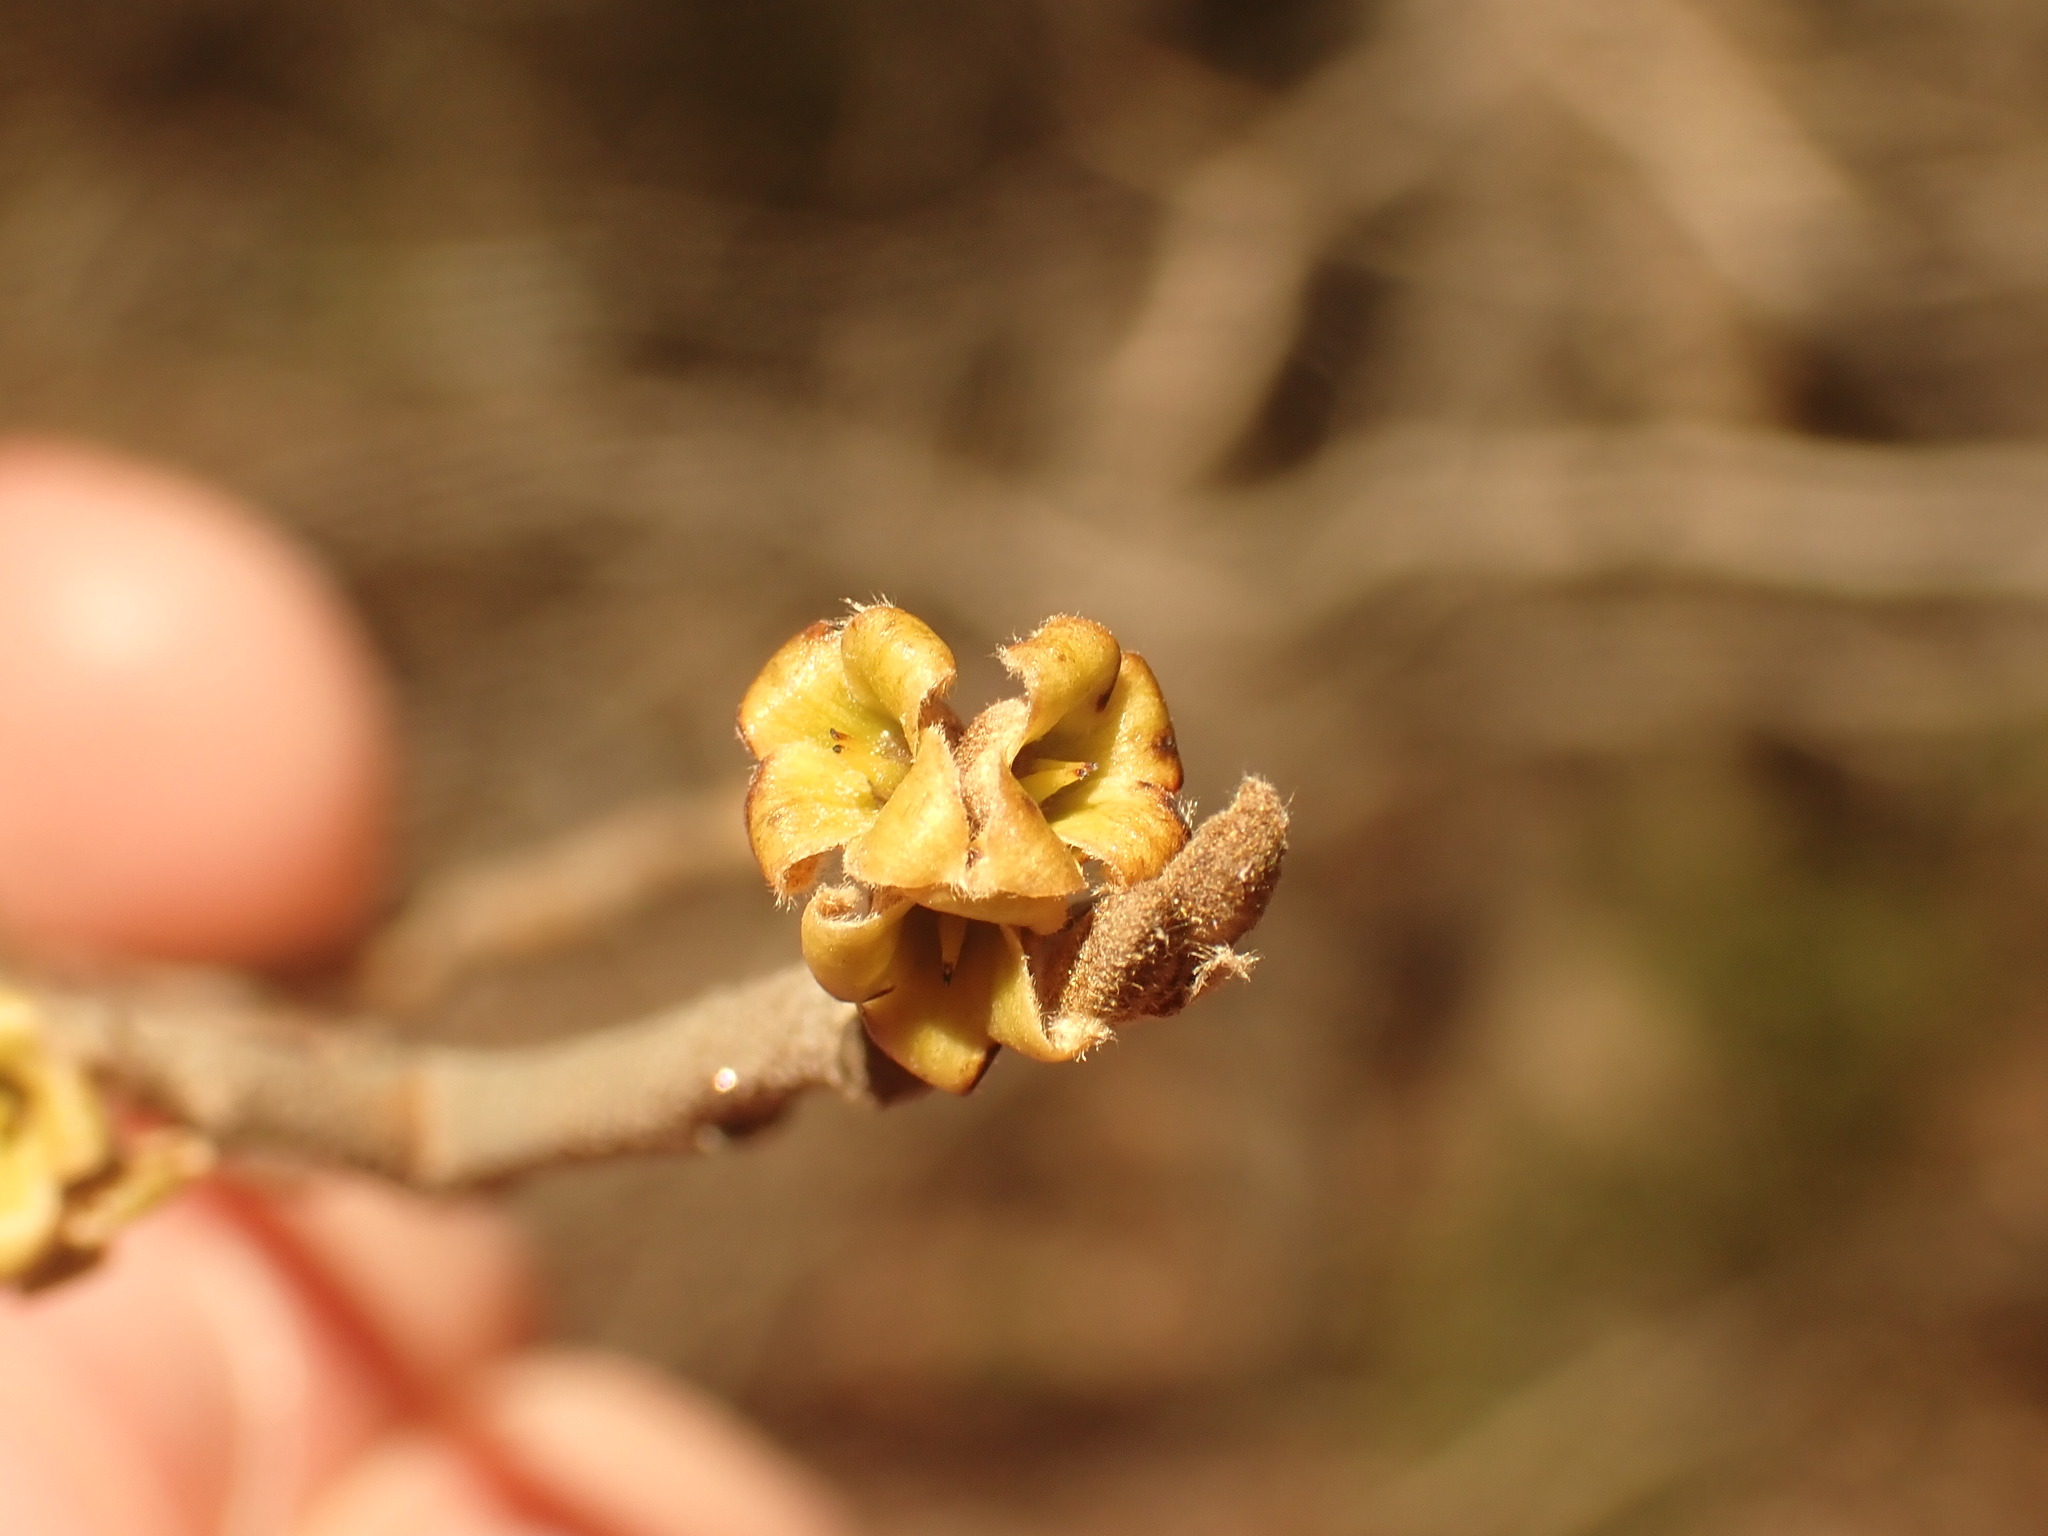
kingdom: Plantae
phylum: Tracheophyta
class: Magnoliopsida
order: Saxifragales
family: Hamamelidaceae
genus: Hamamelis
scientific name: Hamamelis virginiana
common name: Witch-hazel
